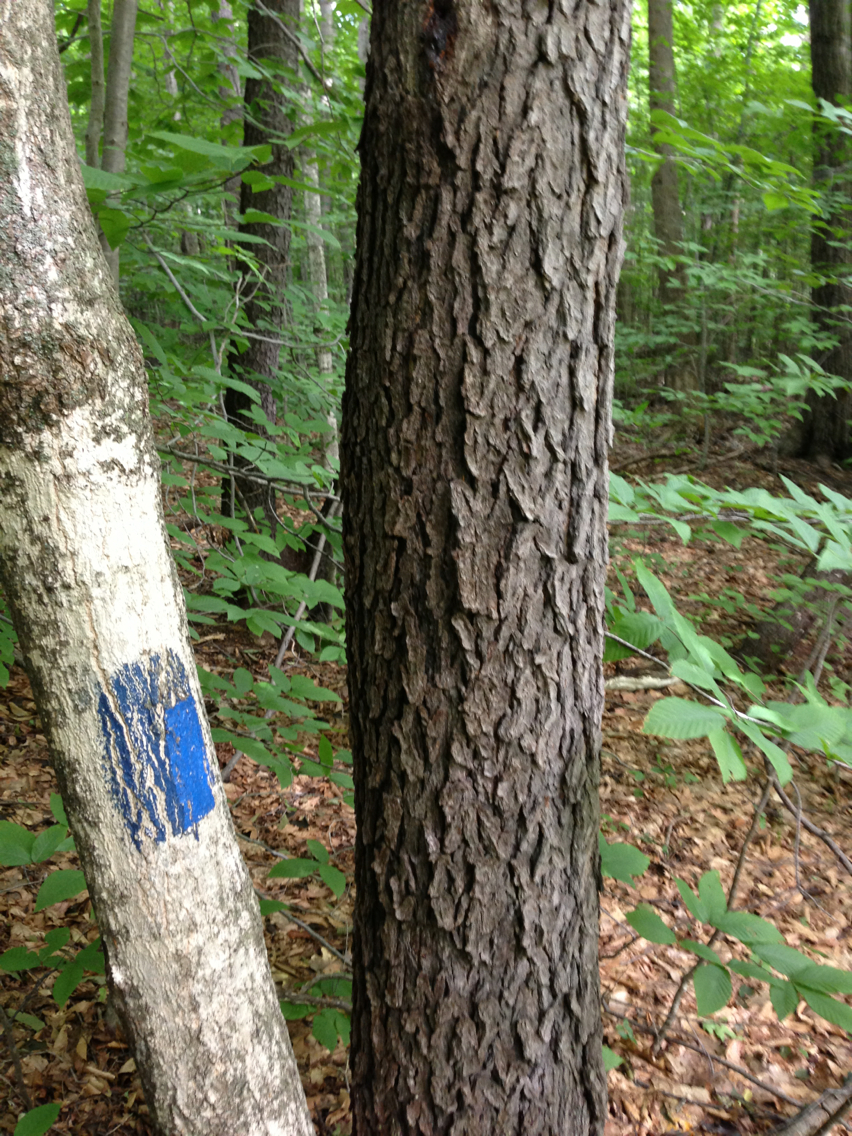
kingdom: Plantae
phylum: Tracheophyta
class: Magnoliopsida
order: Rosales
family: Rosaceae
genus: Prunus
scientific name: Prunus serotina
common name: Black cherry
